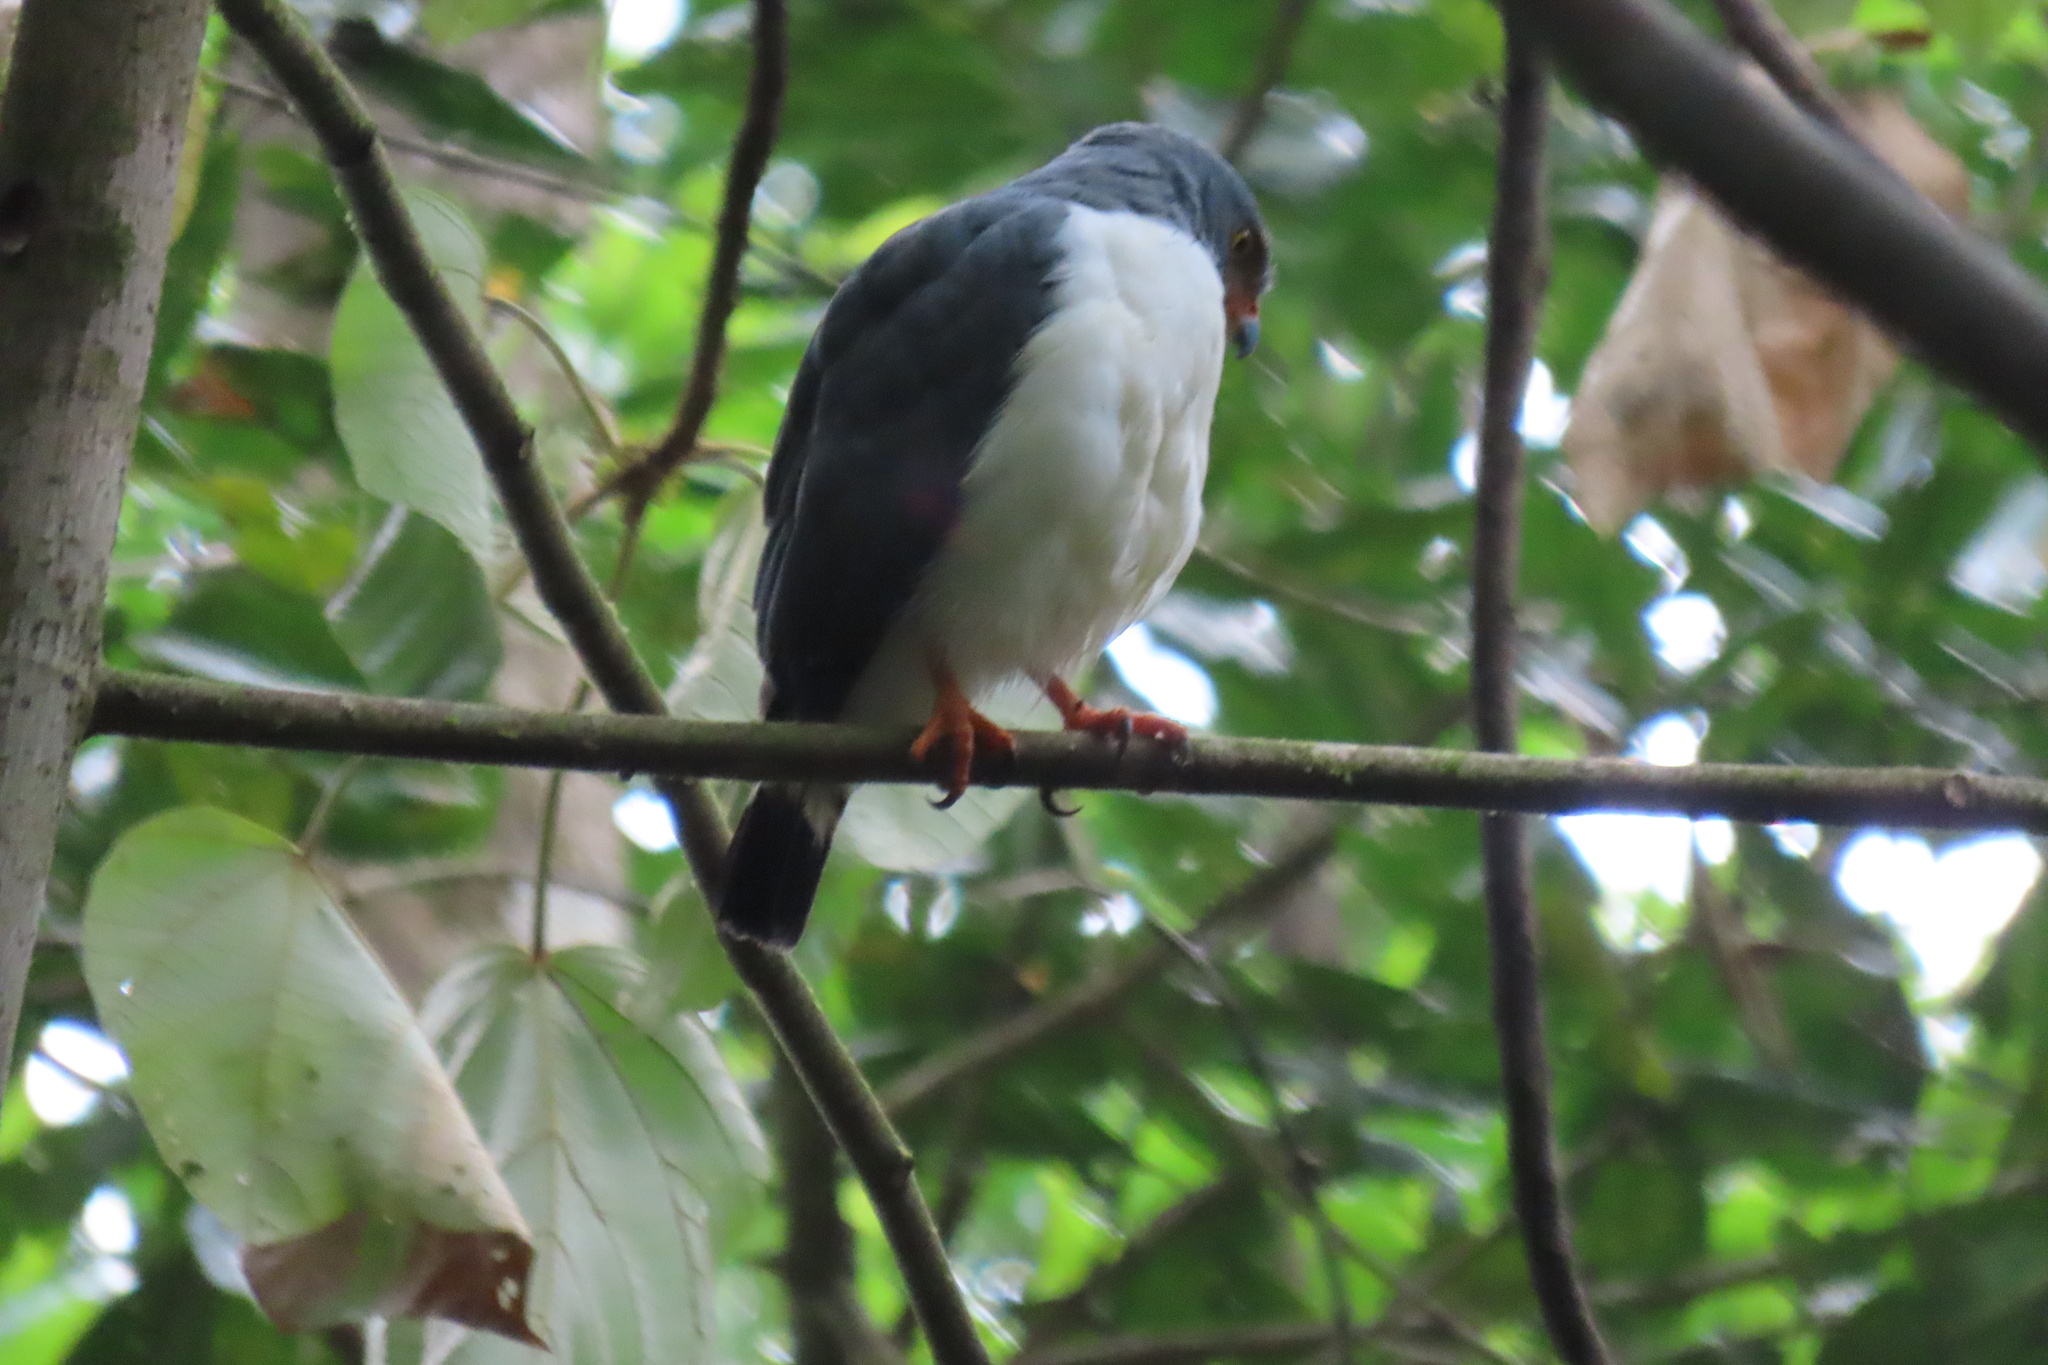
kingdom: Animalia
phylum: Chordata
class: Aves
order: Accipitriformes
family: Accipitridae
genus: Leucopternis
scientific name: Leucopternis semiplumbeus
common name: Semiplumbeous hawk
